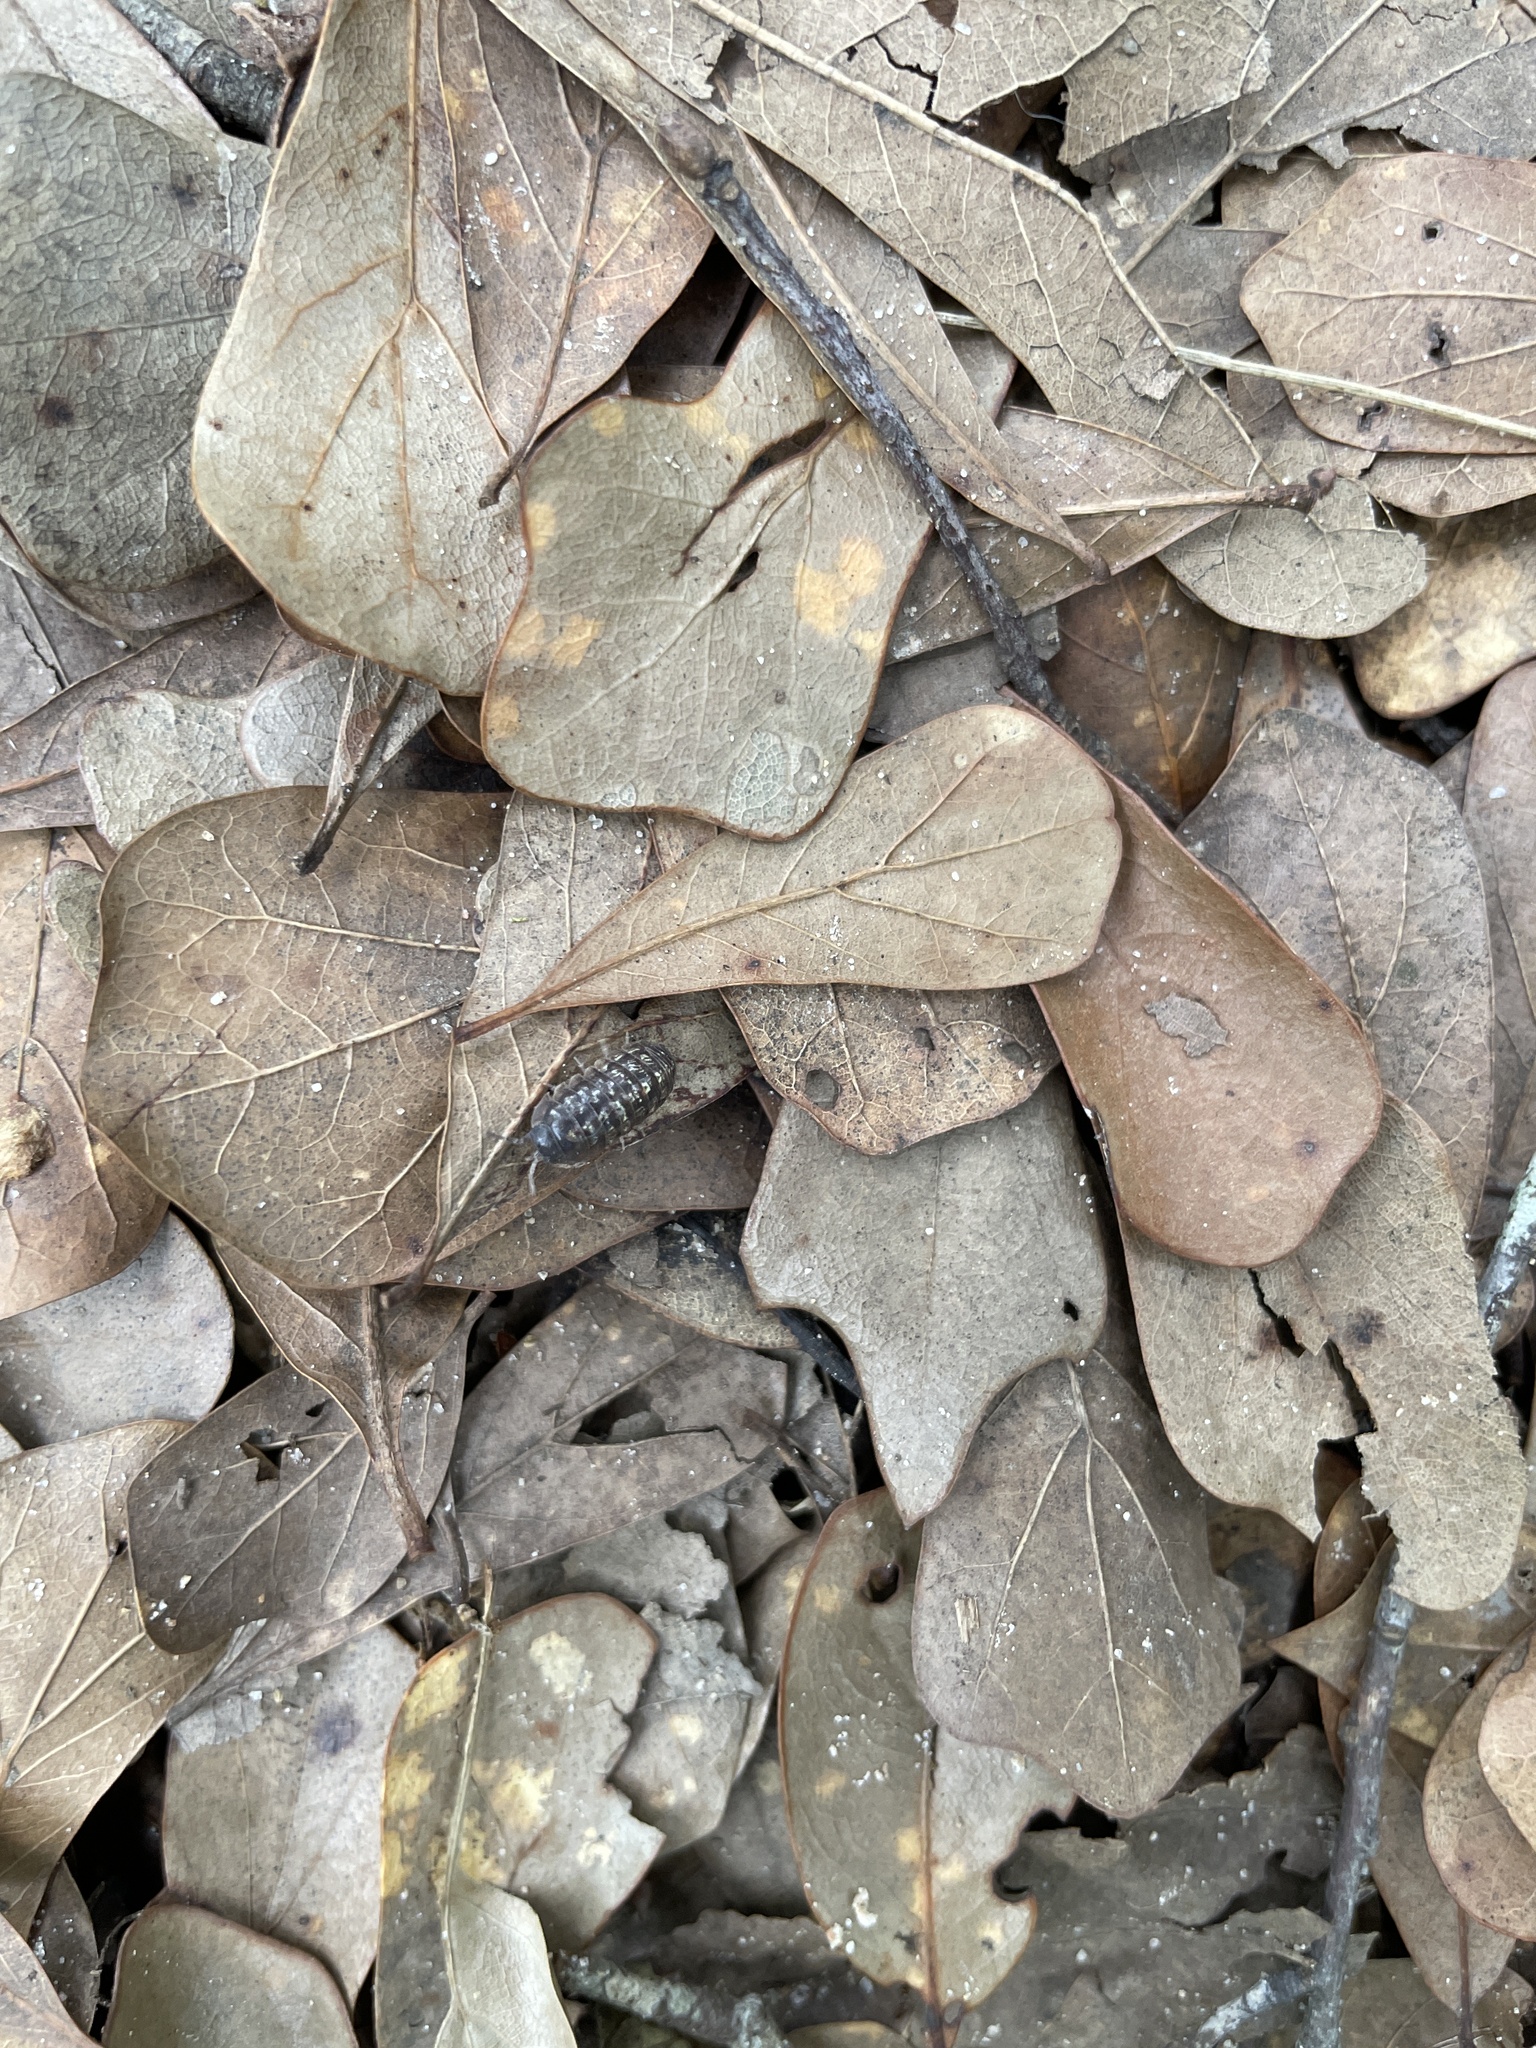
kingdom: Animalia
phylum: Arthropoda
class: Malacostraca
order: Isopoda
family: Armadillidiidae
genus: Armadillidium
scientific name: Armadillidium vulgare
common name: Common pill woodlouse
